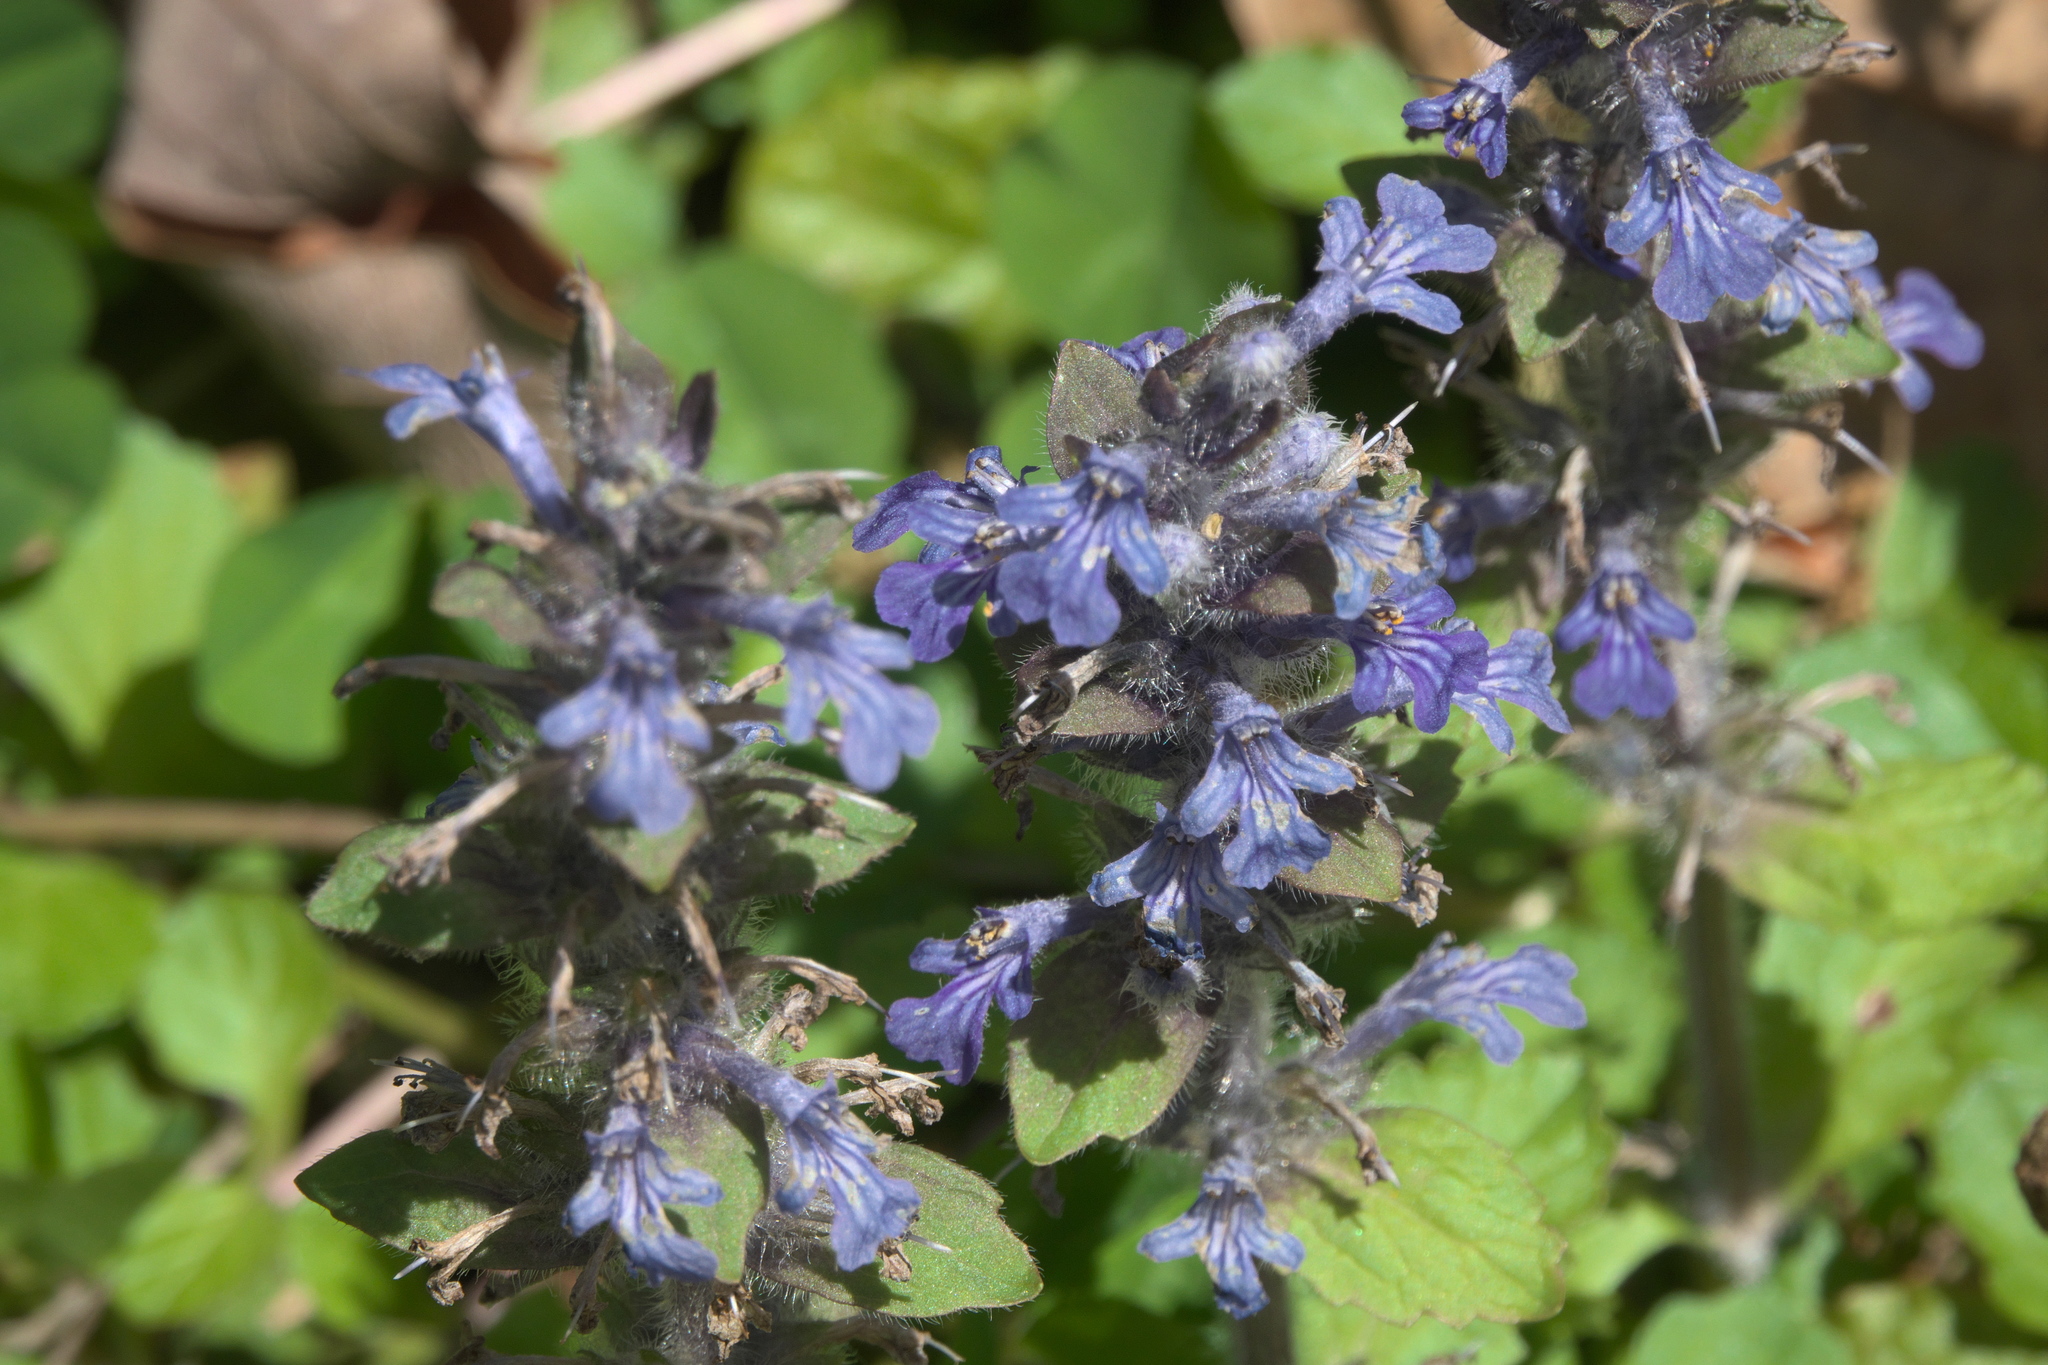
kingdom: Plantae
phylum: Tracheophyta
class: Magnoliopsida
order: Lamiales
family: Lamiaceae
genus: Ajuga
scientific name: Ajuga reptans
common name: Bugle
